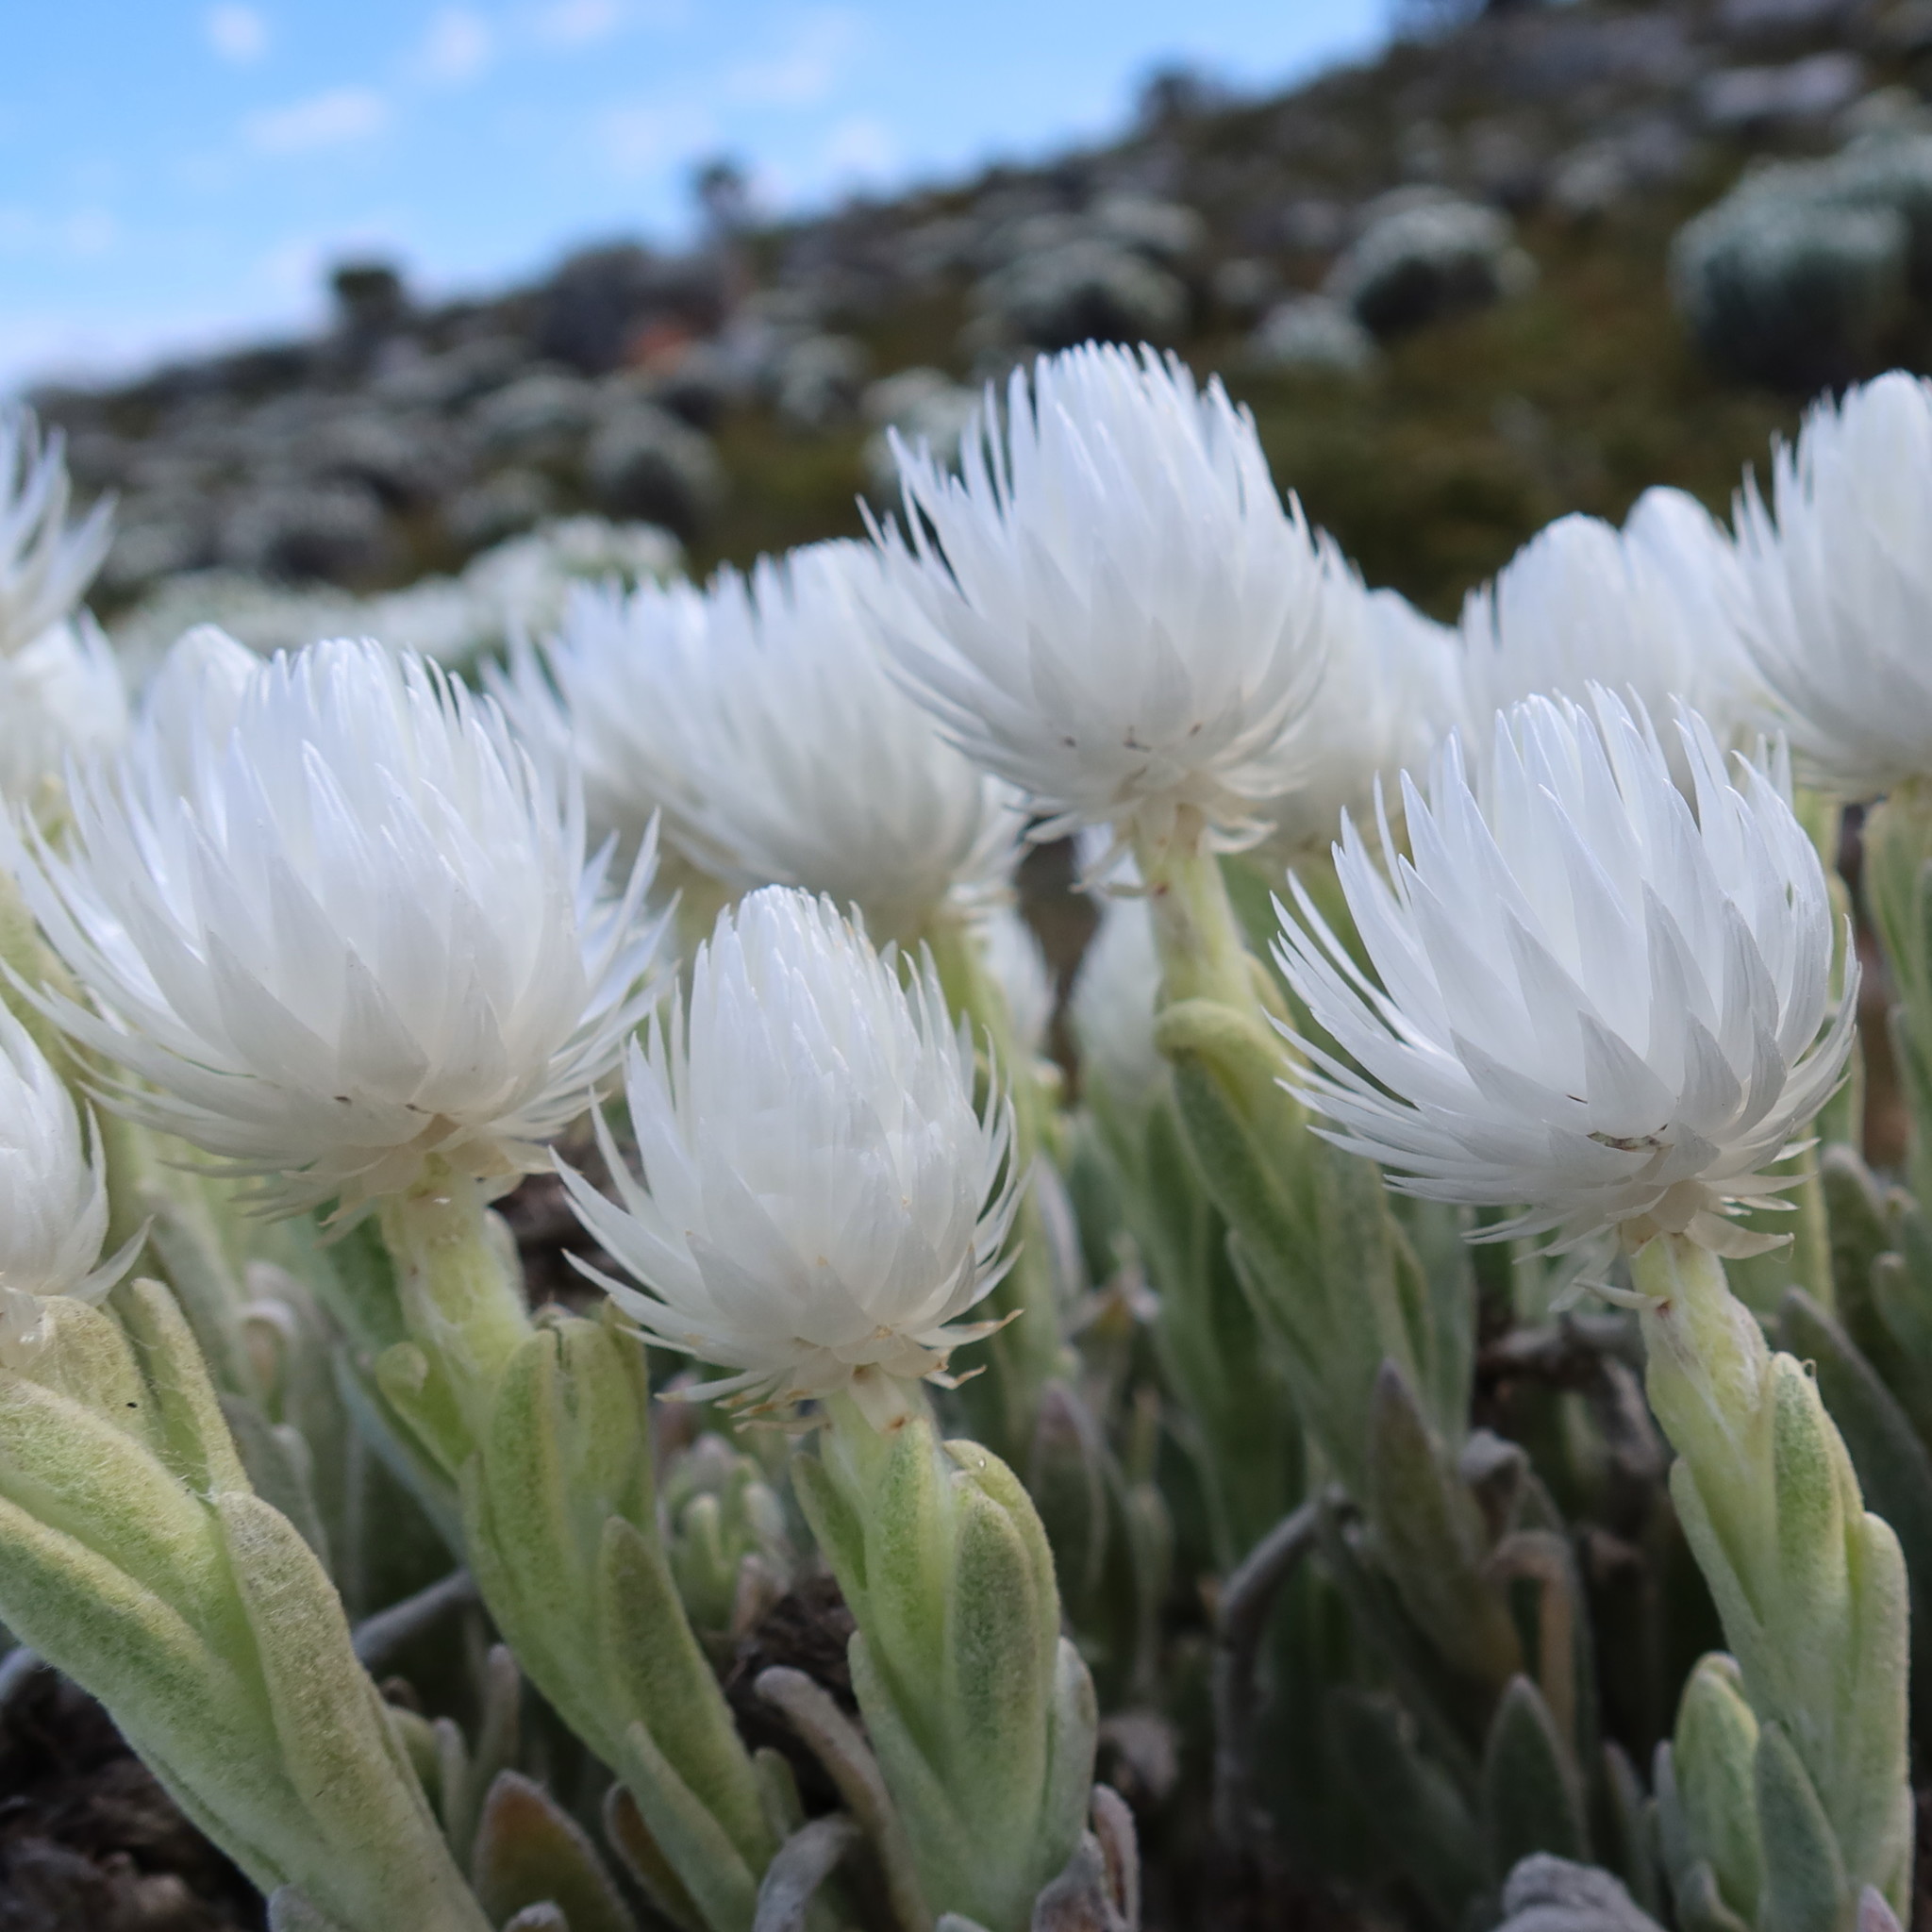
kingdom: Plantae
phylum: Tracheophyta
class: Magnoliopsida
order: Asterales
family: Asteraceae
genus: Syncarpha
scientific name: Syncarpha vestita
